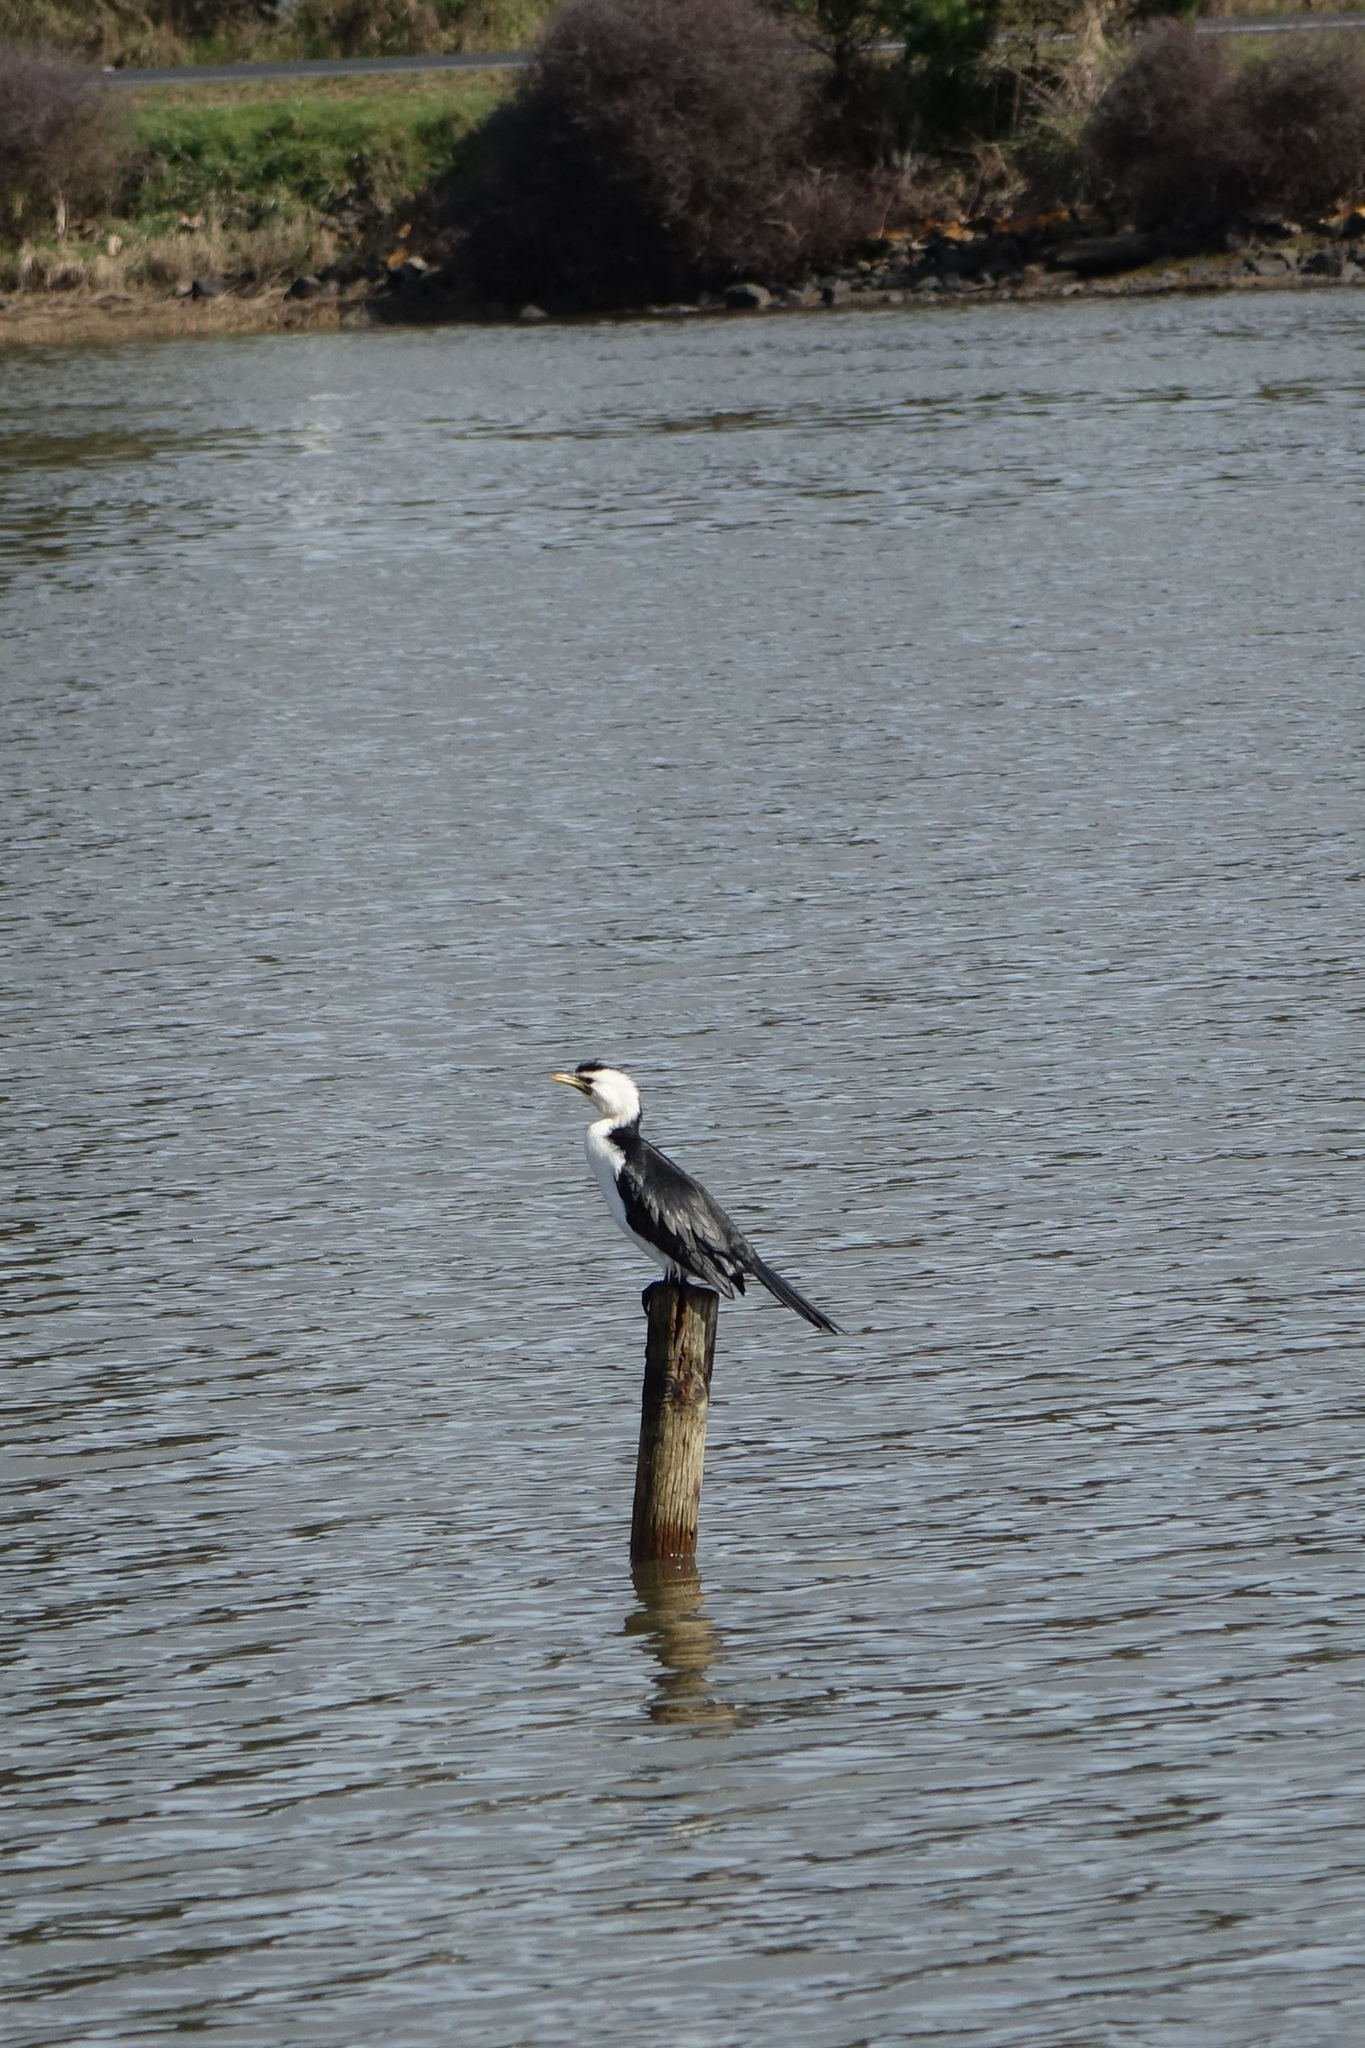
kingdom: Animalia
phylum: Chordata
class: Aves
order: Suliformes
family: Phalacrocoracidae
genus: Microcarbo
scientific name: Microcarbo melanoleucos
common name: Little pied cormorant
